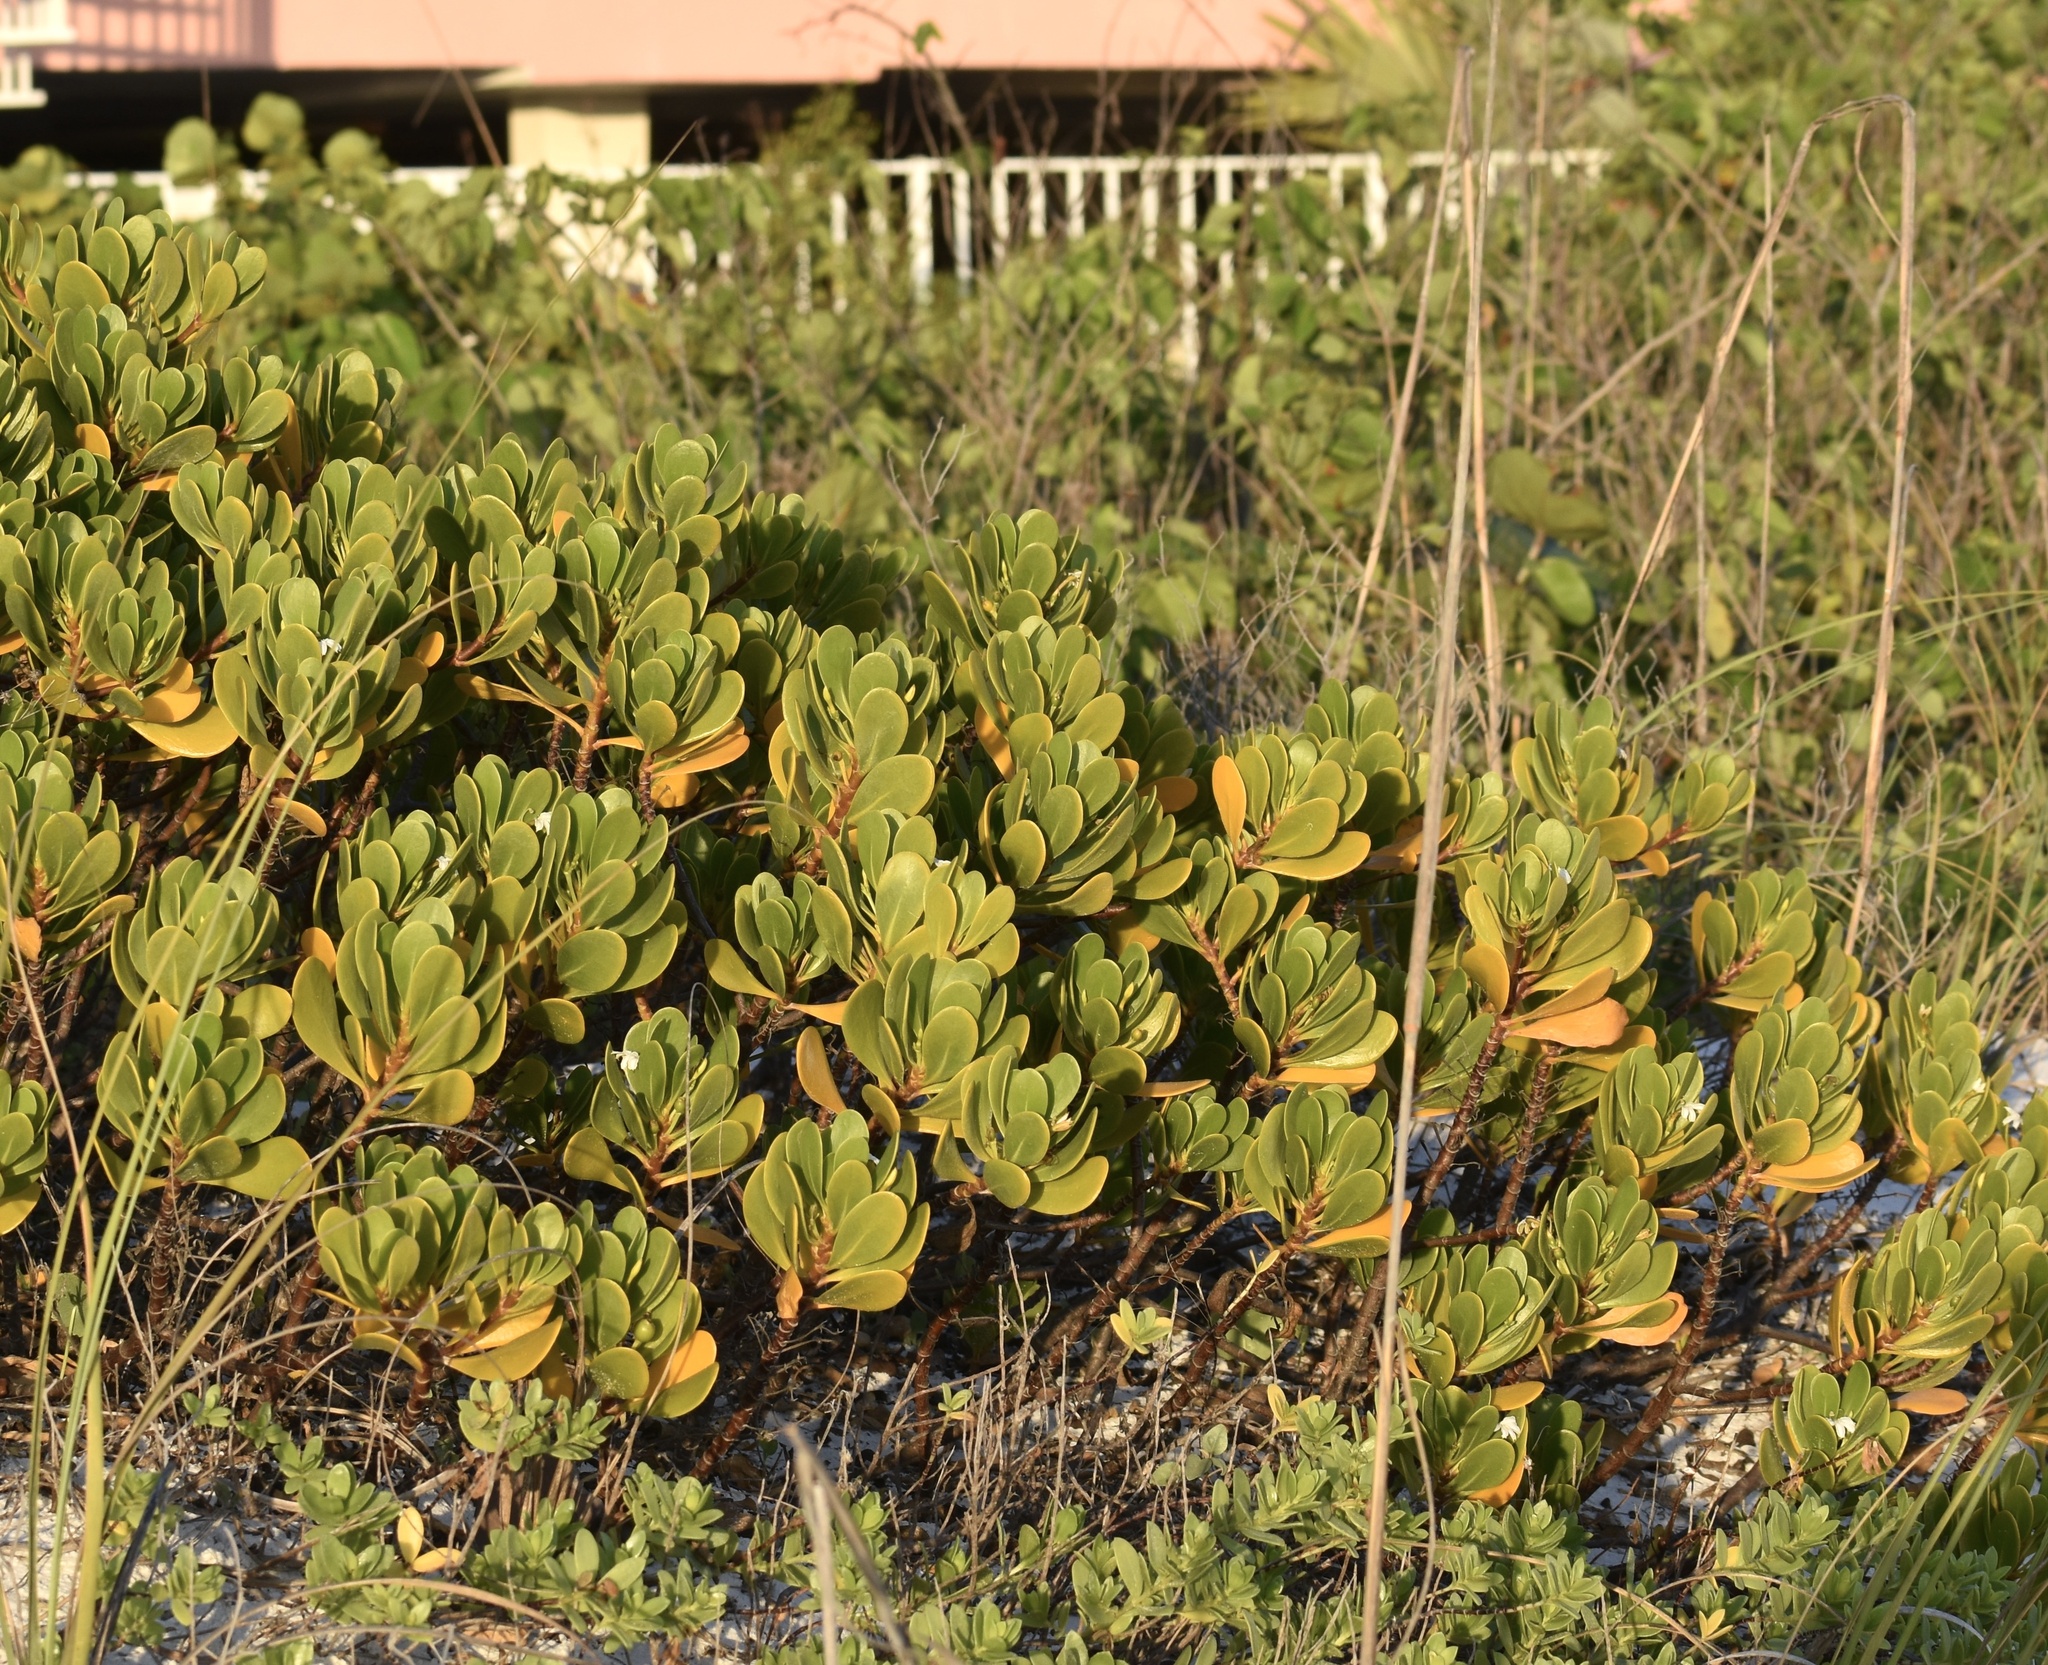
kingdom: Plantae
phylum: Tracheophyta
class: Magnoliopsida
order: Asterales
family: Goodeniaceae
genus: Scaevola
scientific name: Scaevola plumieri
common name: Gull feed
